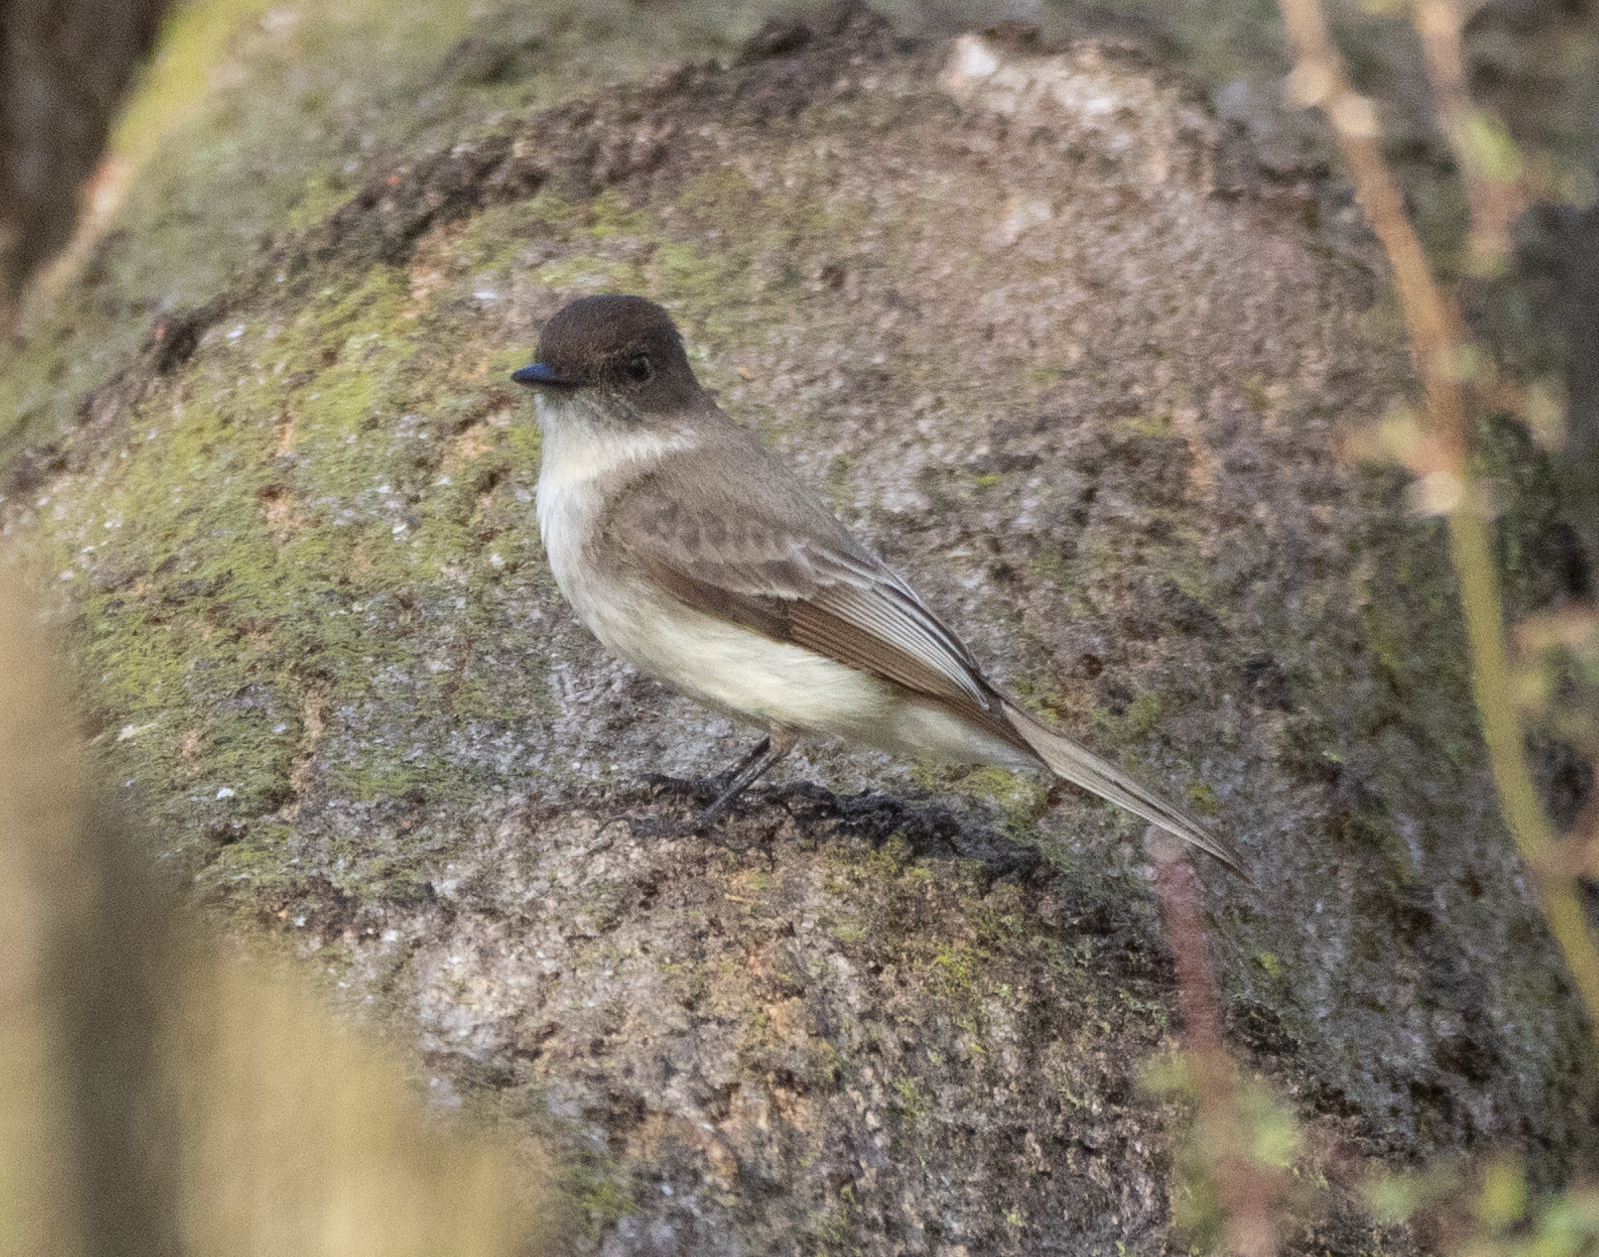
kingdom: Animalia
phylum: Chordata
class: Aves
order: Passeriformes
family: Tyrannidae
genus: Sayornis
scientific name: Sayornis phoebe
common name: Eastern phoebe
